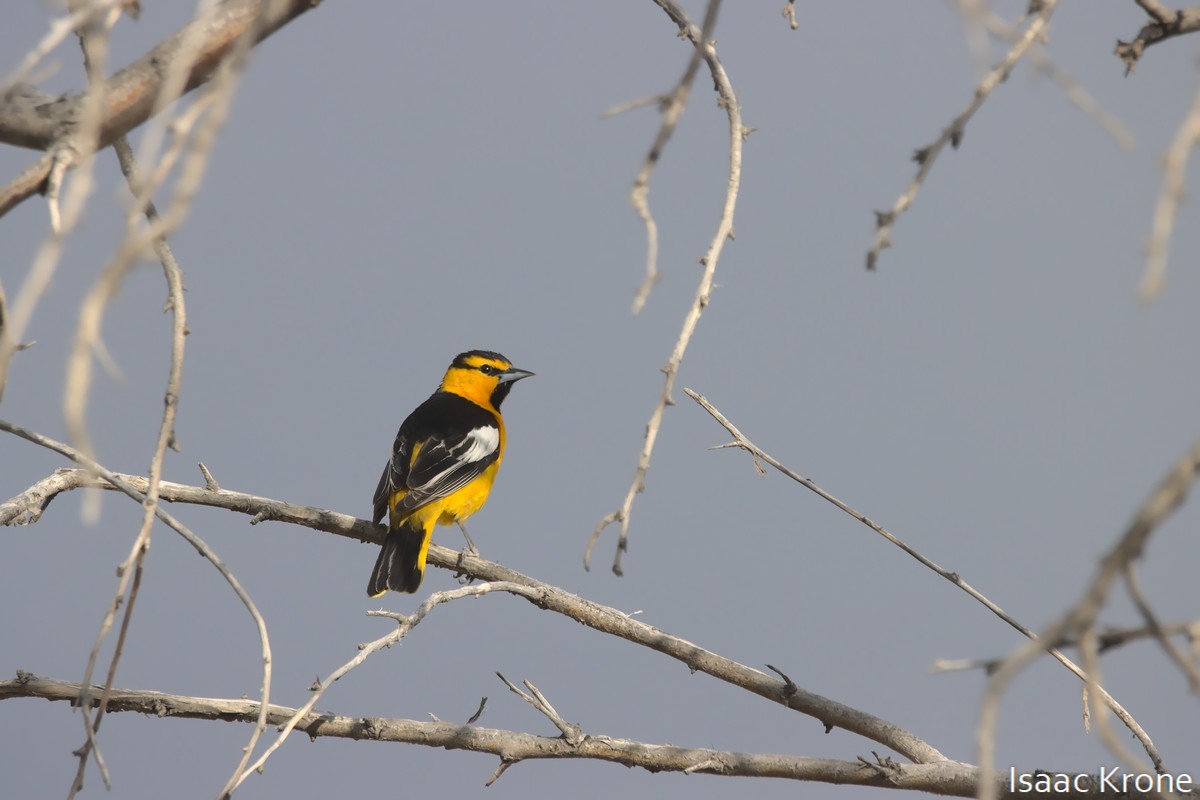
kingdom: Animalia
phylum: Chordata
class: Aves
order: Passeriformes
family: Icteridae
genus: Icterus
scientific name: Icterus bullockii
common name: Bullock's oriole
